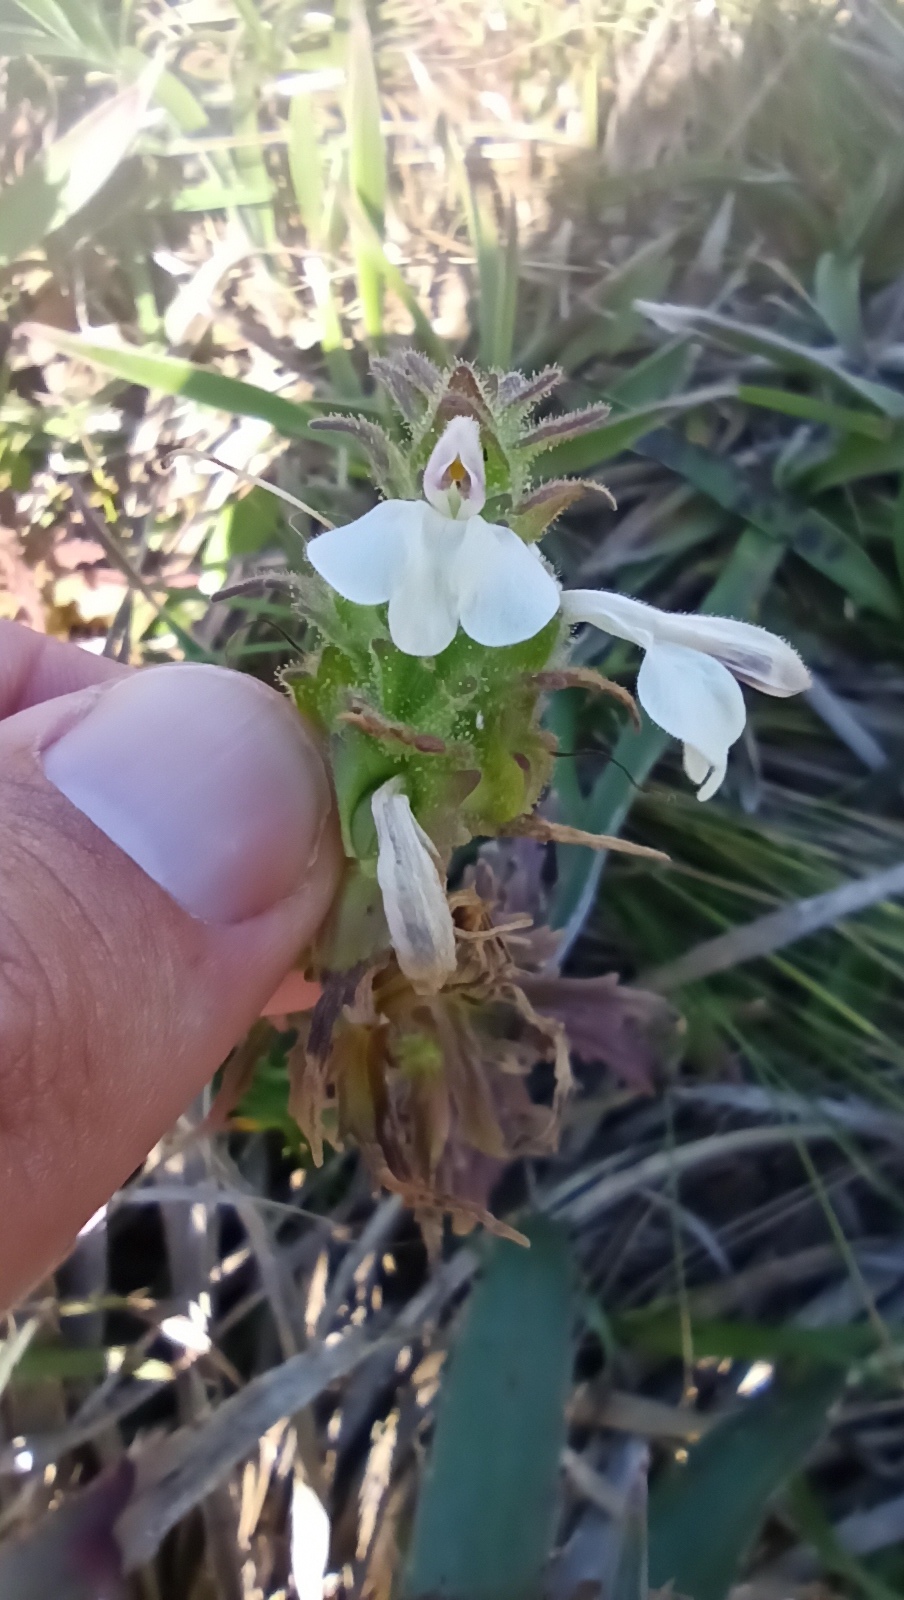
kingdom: Plantae
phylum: Tracheophyta
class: Magnoliopsida
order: Lamiales
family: Orobanchaceae
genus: Bellardia
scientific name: Bellardia trixago
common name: Mediterranean lineseed
